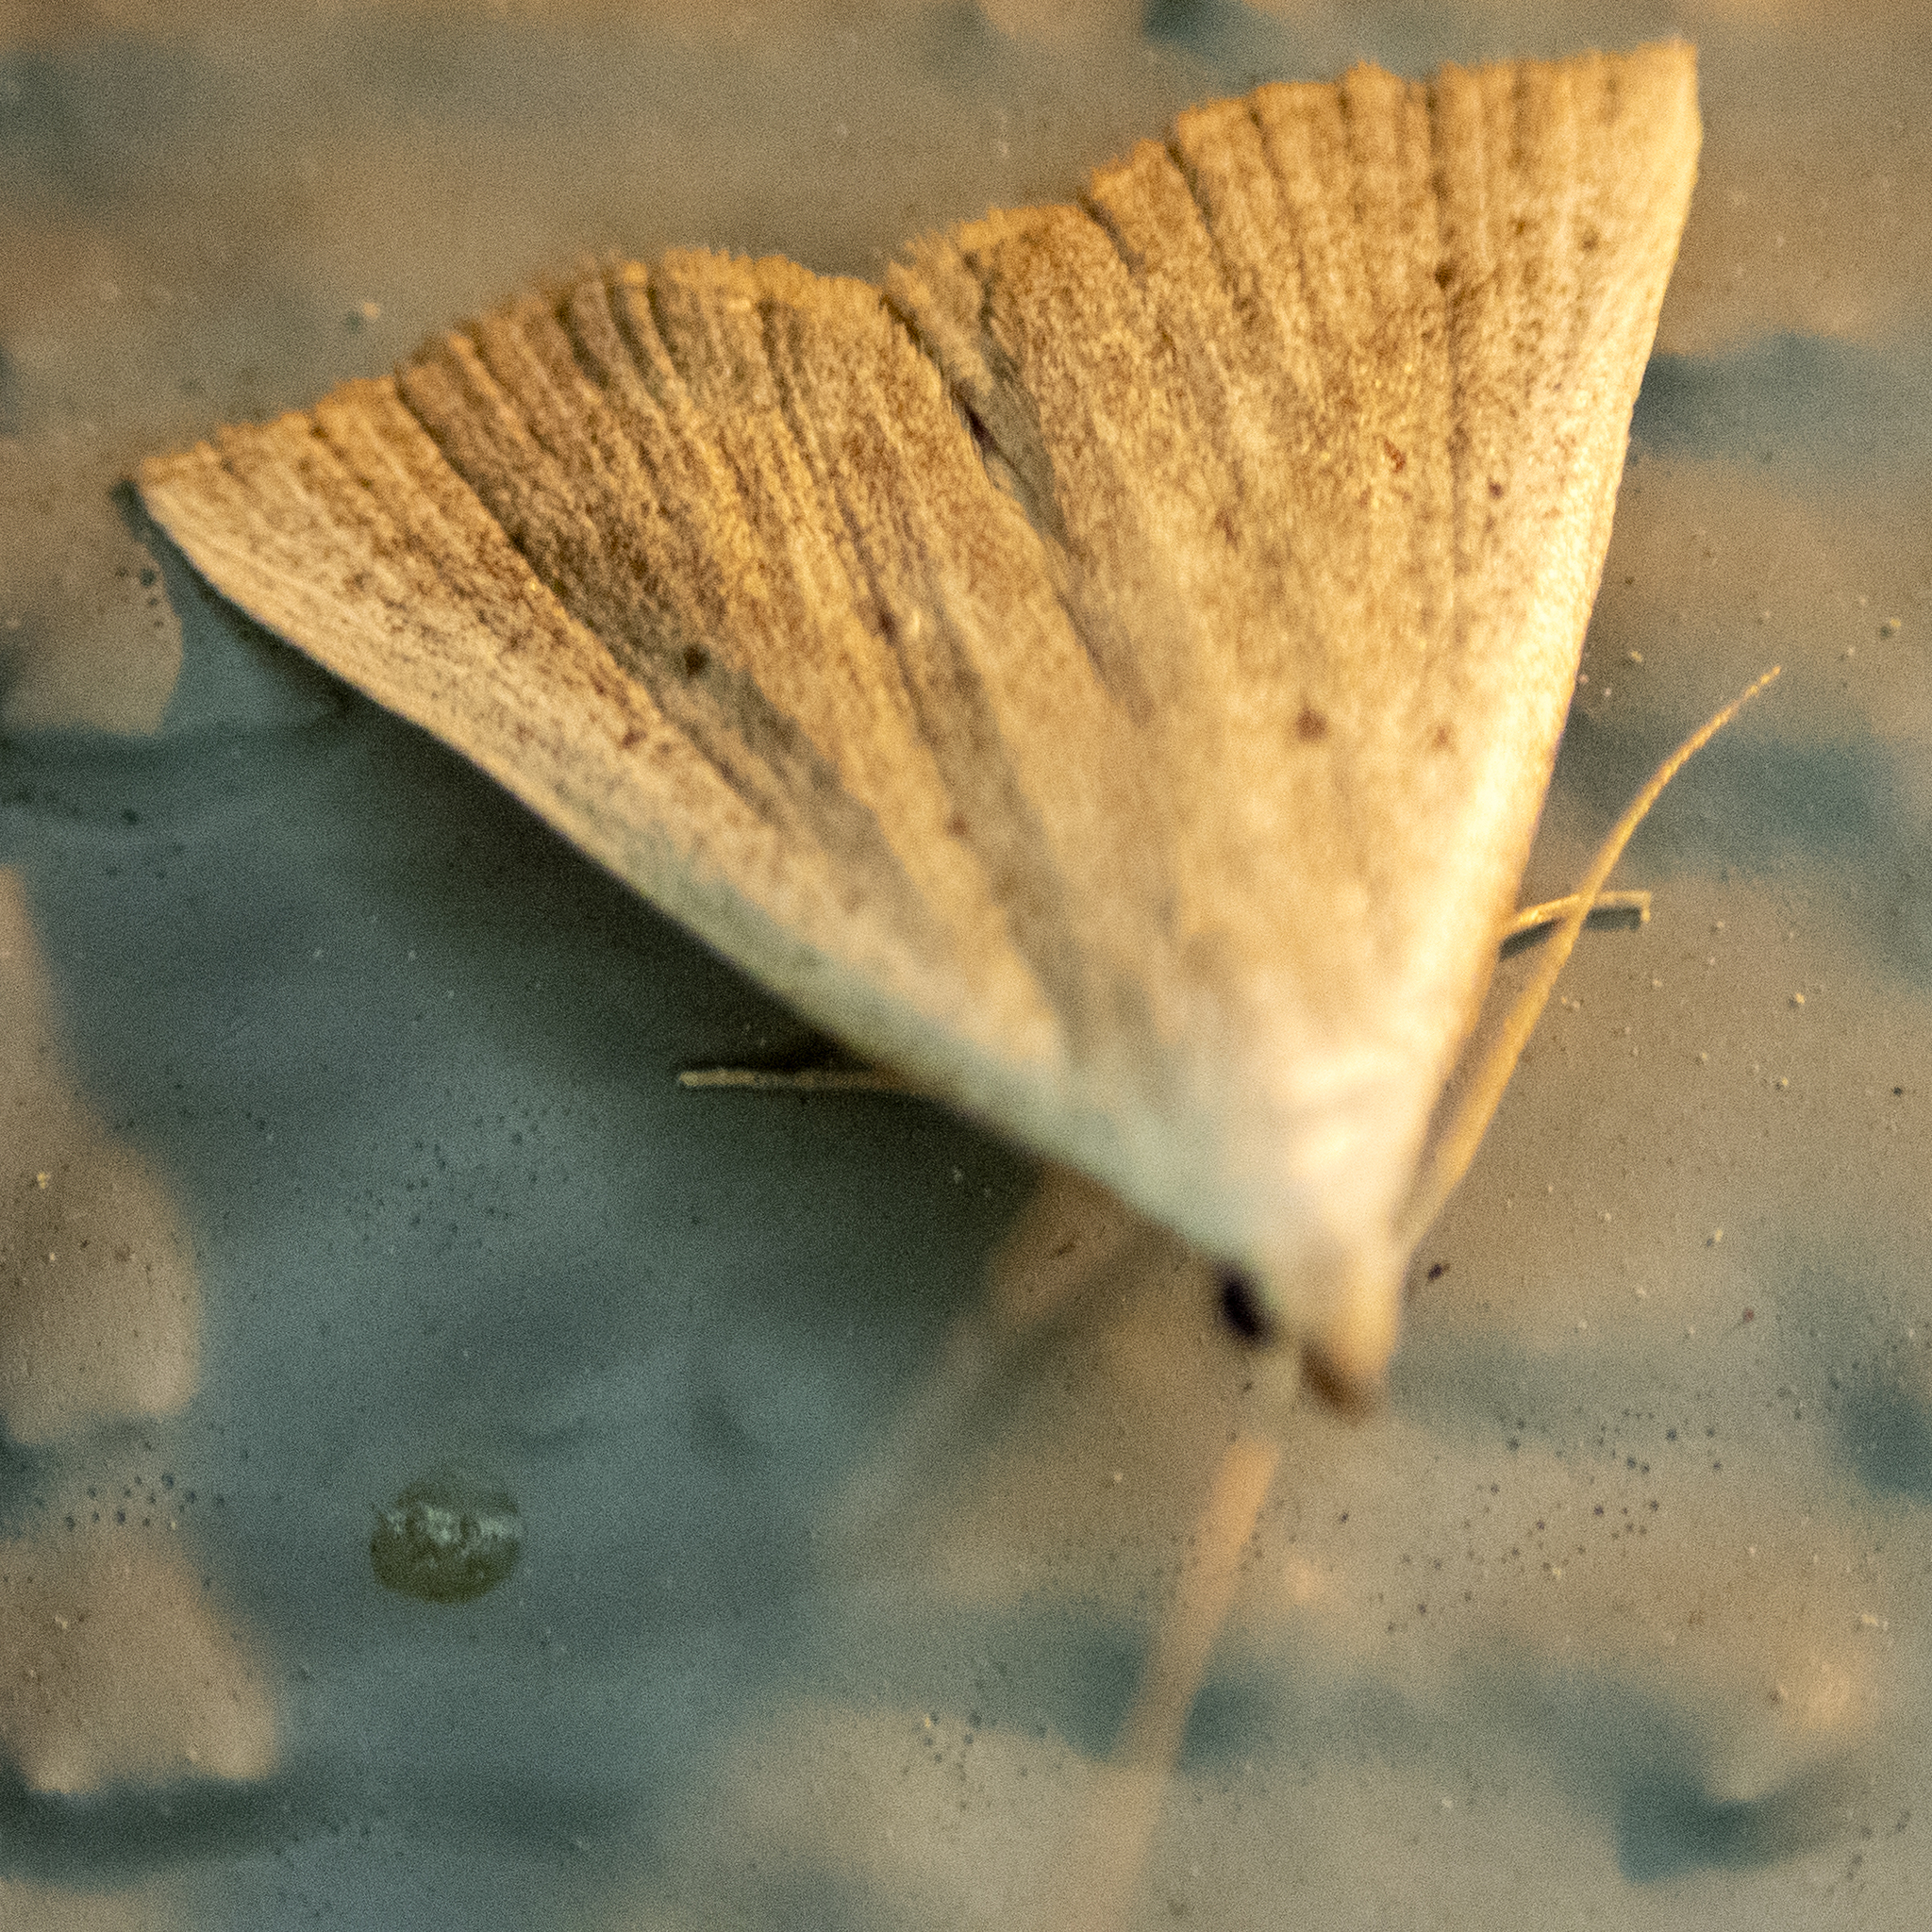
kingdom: Animalia
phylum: Arthropoda
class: Insecta
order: Lepidoptera
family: Erebidae
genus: Macrochilo
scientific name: Macrochilo louisiana
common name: Louisiana macrochilo
